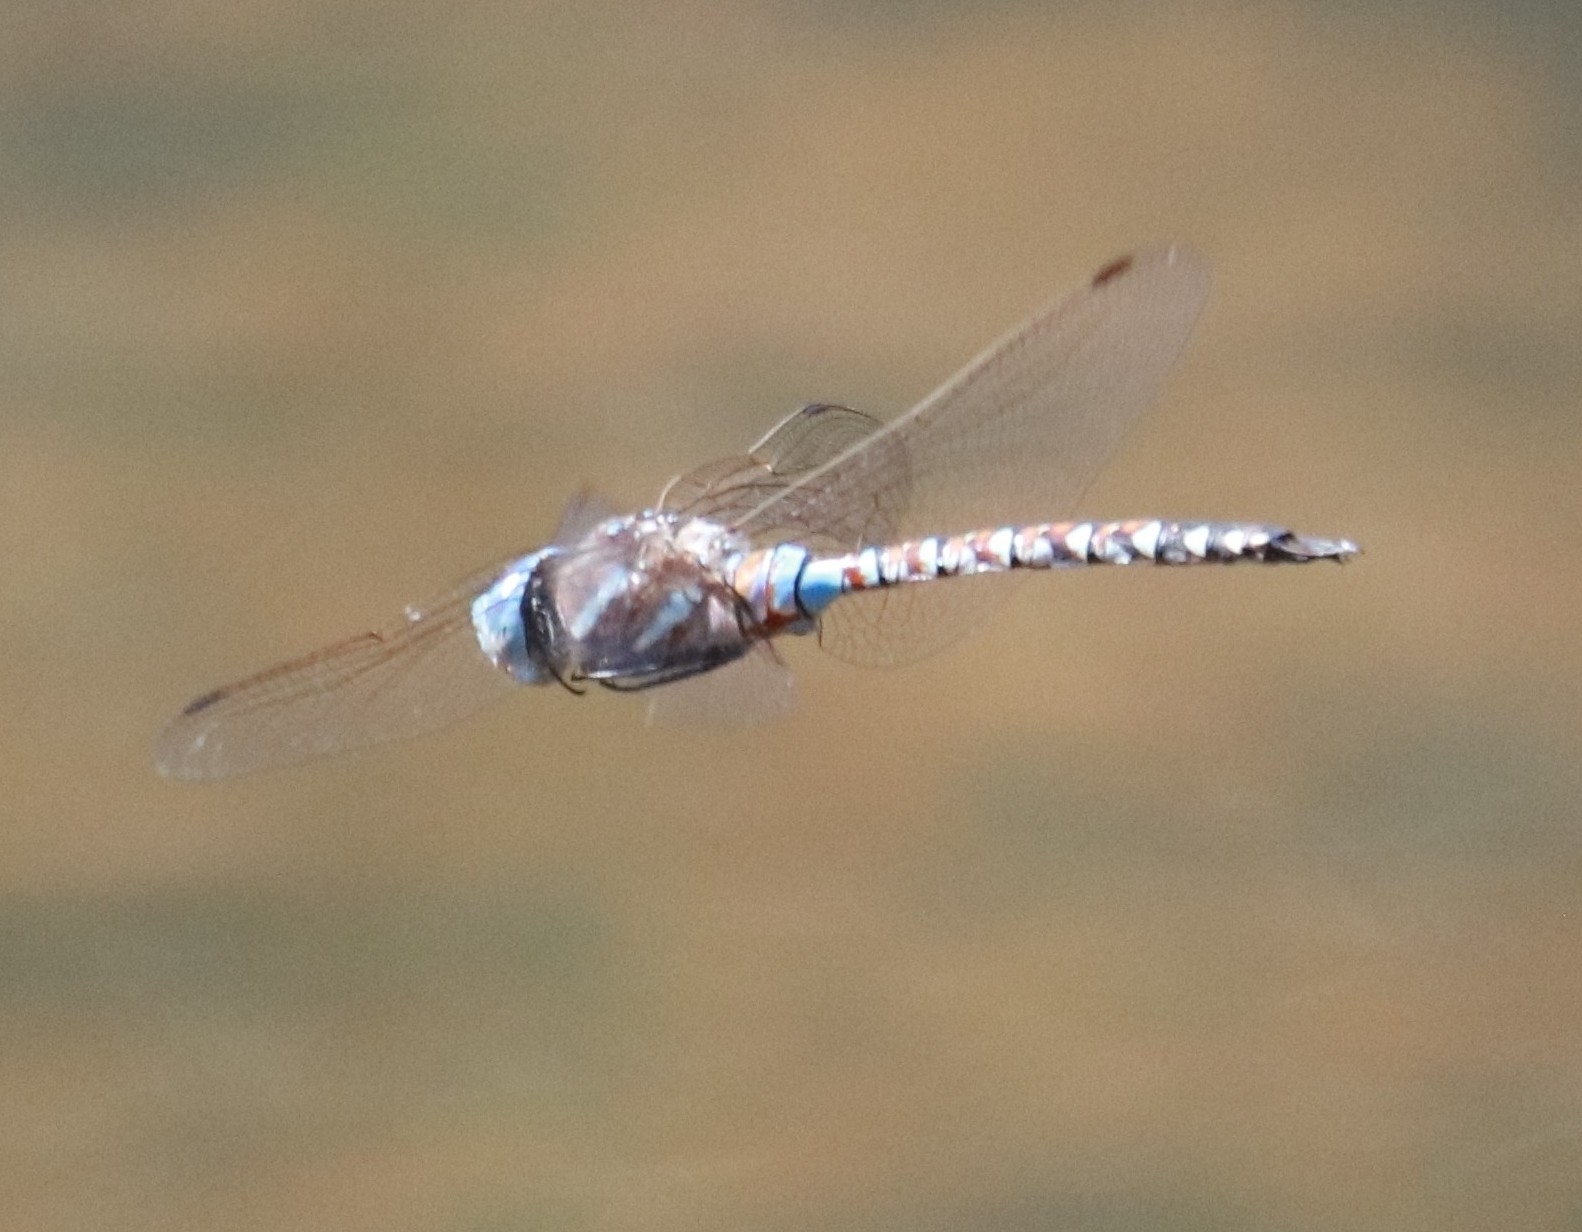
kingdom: Animalia
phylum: Arthropoda
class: Insecta
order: Odonata
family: Aeshnidae
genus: Rhionaeschna
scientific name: Rhionaeschna multicolor
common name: Blue-eyed darner
